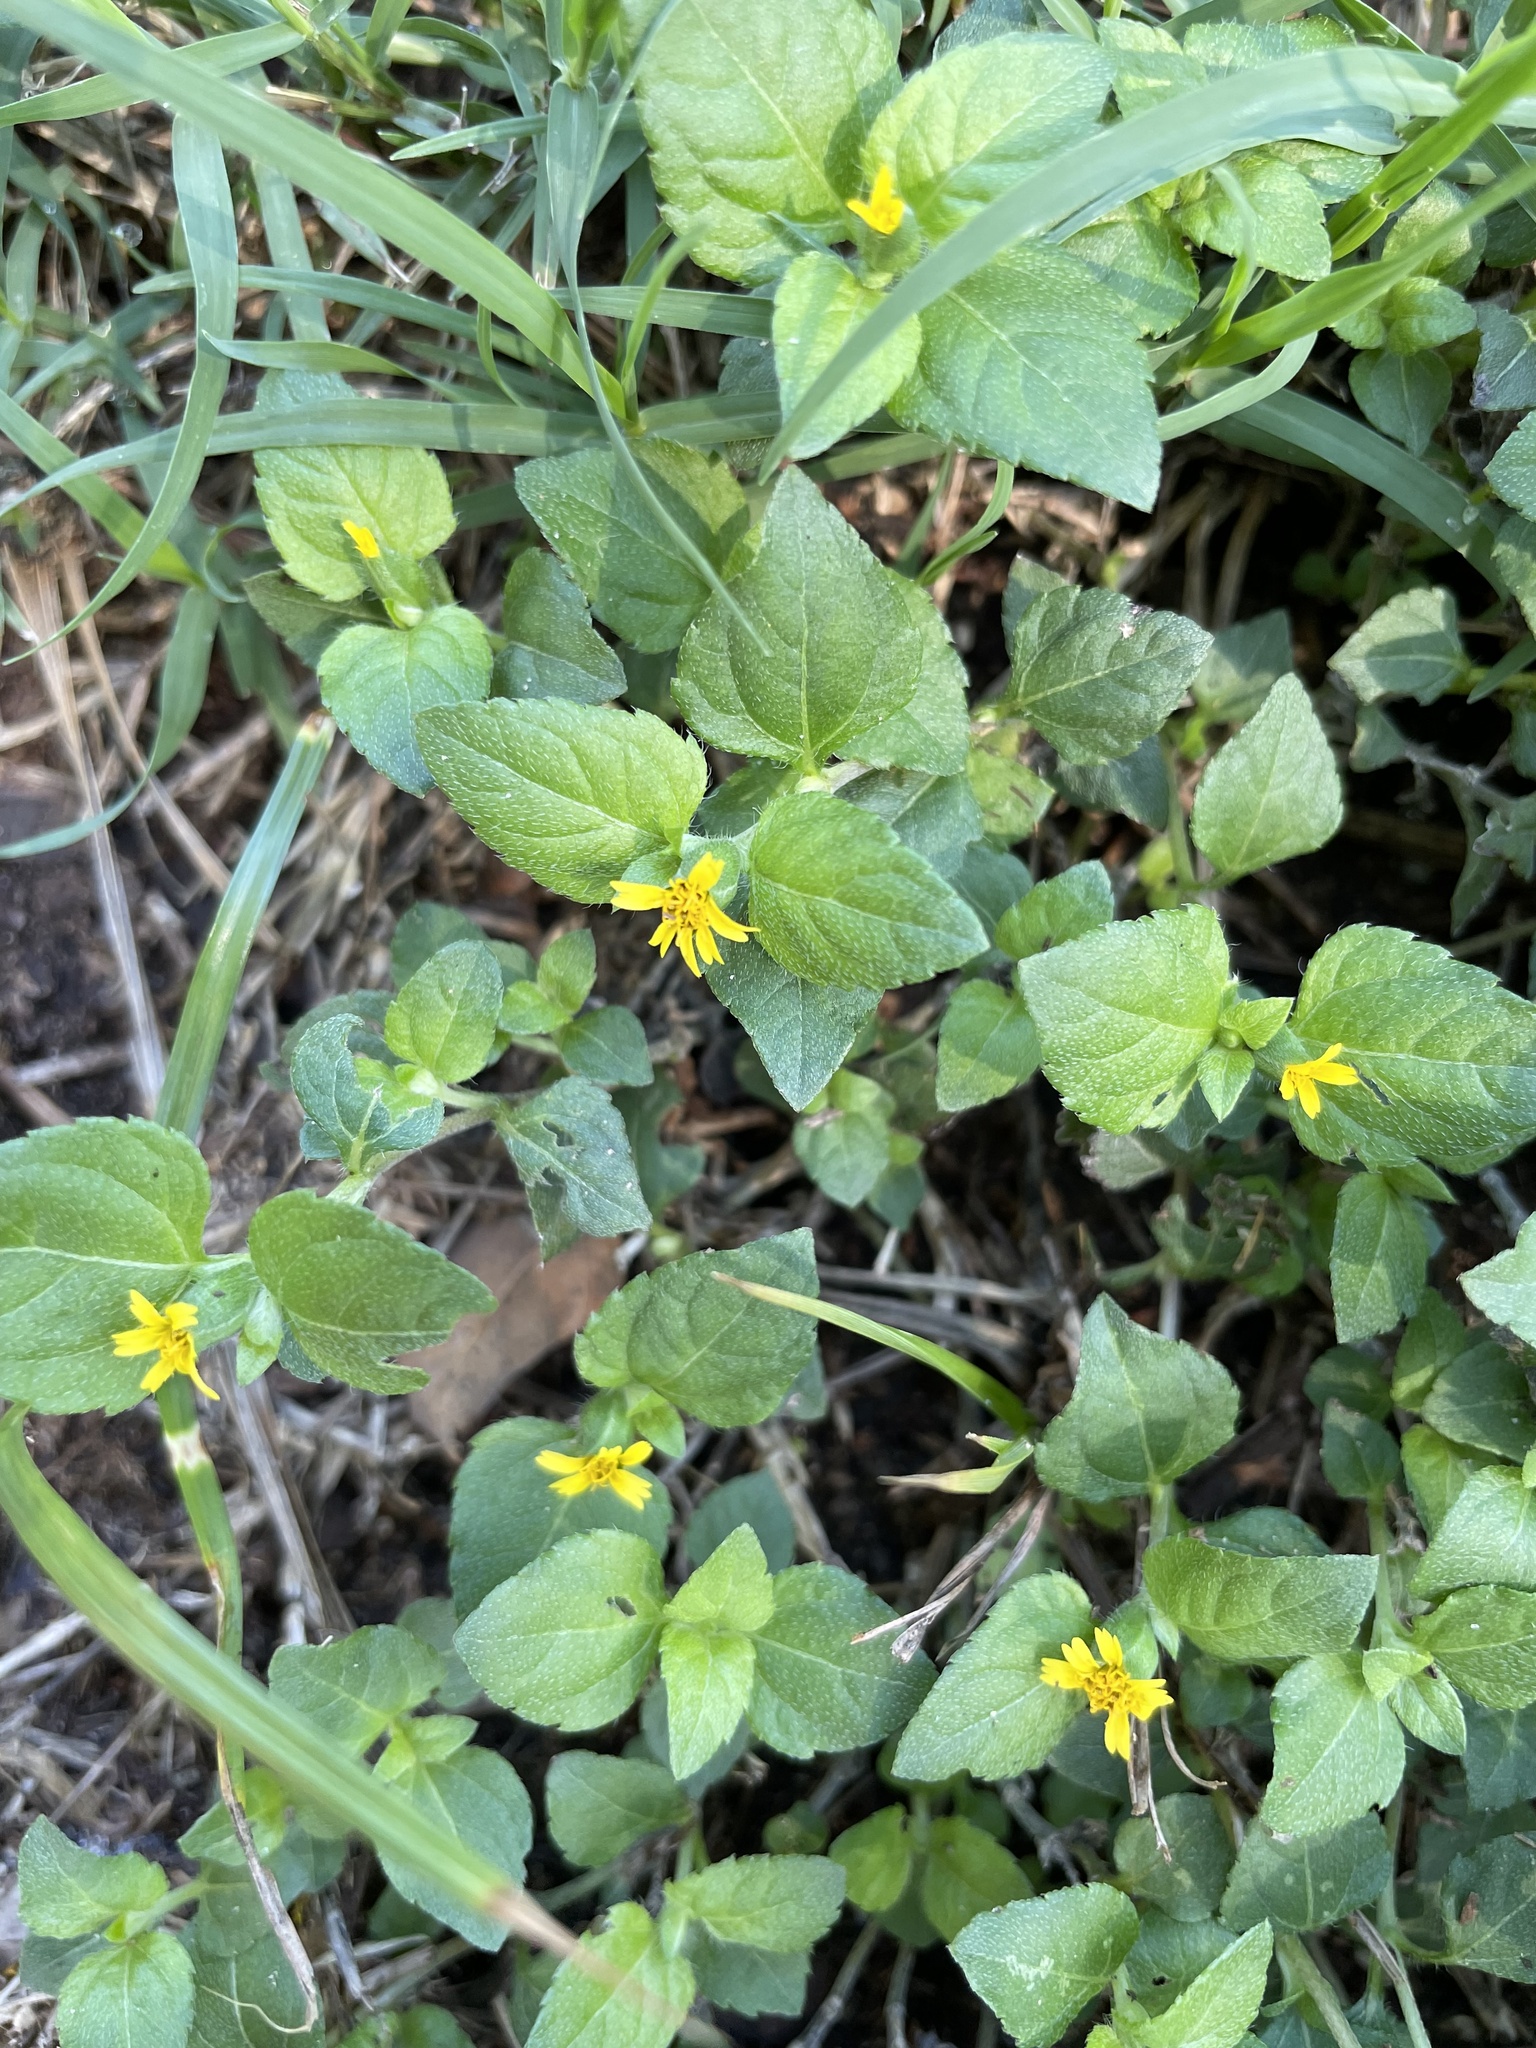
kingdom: Plantae
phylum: Tracheophyta
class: Magnoliopsida
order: Asterales
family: Asteraceae
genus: Calyptocarpus
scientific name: Calyptocarpus vialis
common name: Straggler daisy
